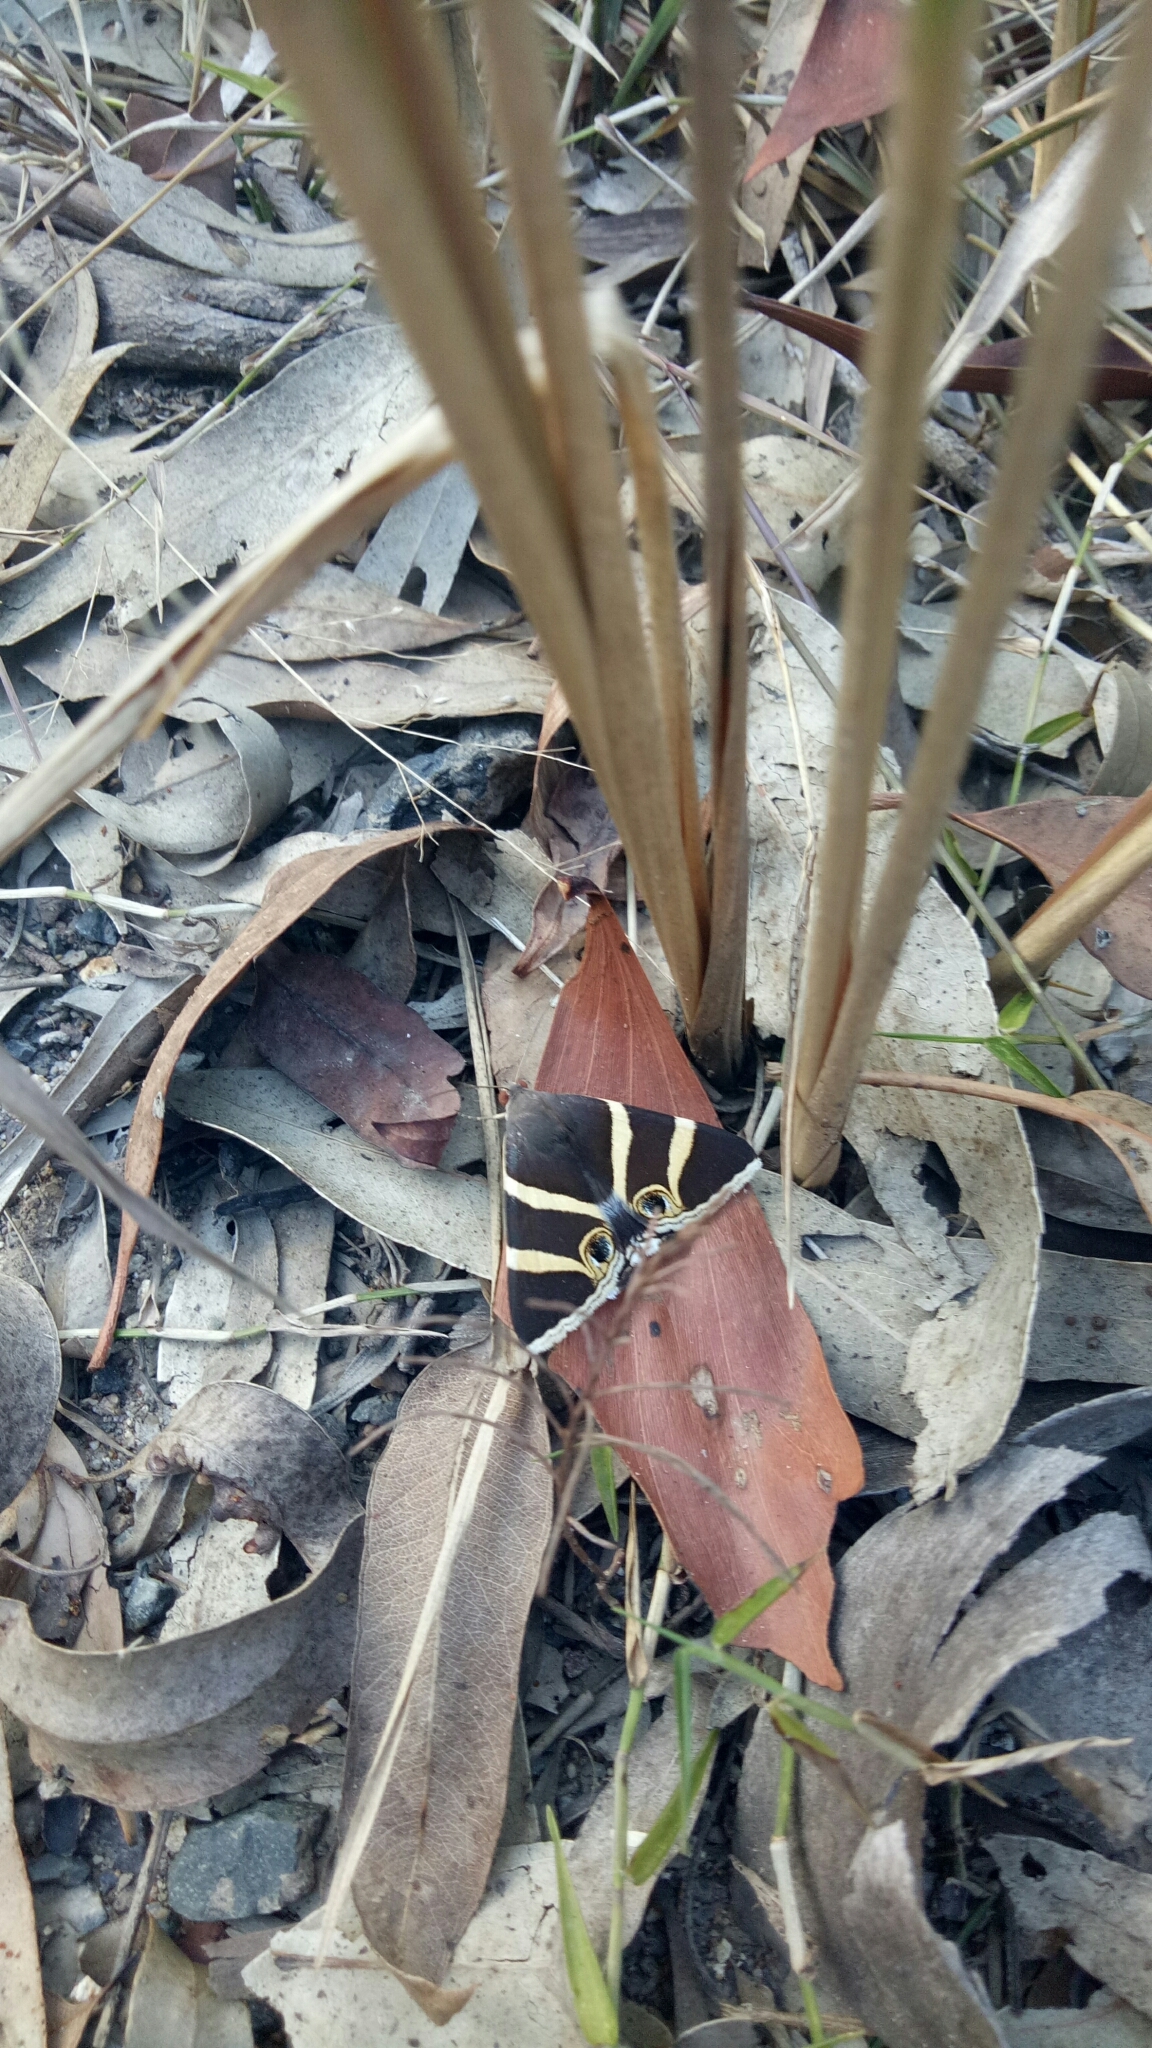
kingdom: Animalia
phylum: Arthropoda
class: Insecta
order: Lepidoptera
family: Erebidae
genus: Grammodes
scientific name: Grammodes ocellata
